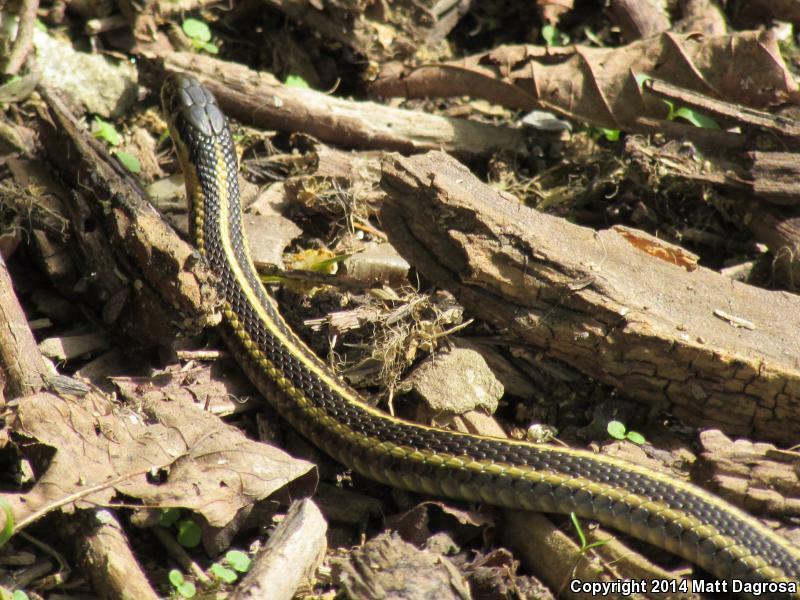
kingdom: Animalia
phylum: Chordata
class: Squamata
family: Colubridae
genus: Thamnophis
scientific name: Thamnophis ordinoides
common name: Northwestern garter snake
